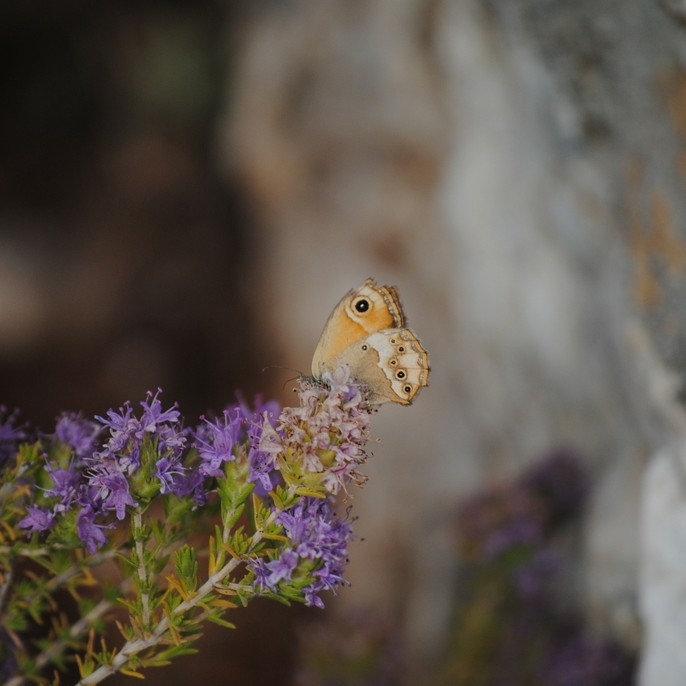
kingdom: Animalia
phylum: Arthropoda
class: Insecta
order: Lepidoptera
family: Nymphalidae
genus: Coenonympha
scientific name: Coenonympha dorus
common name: Dusky heath
